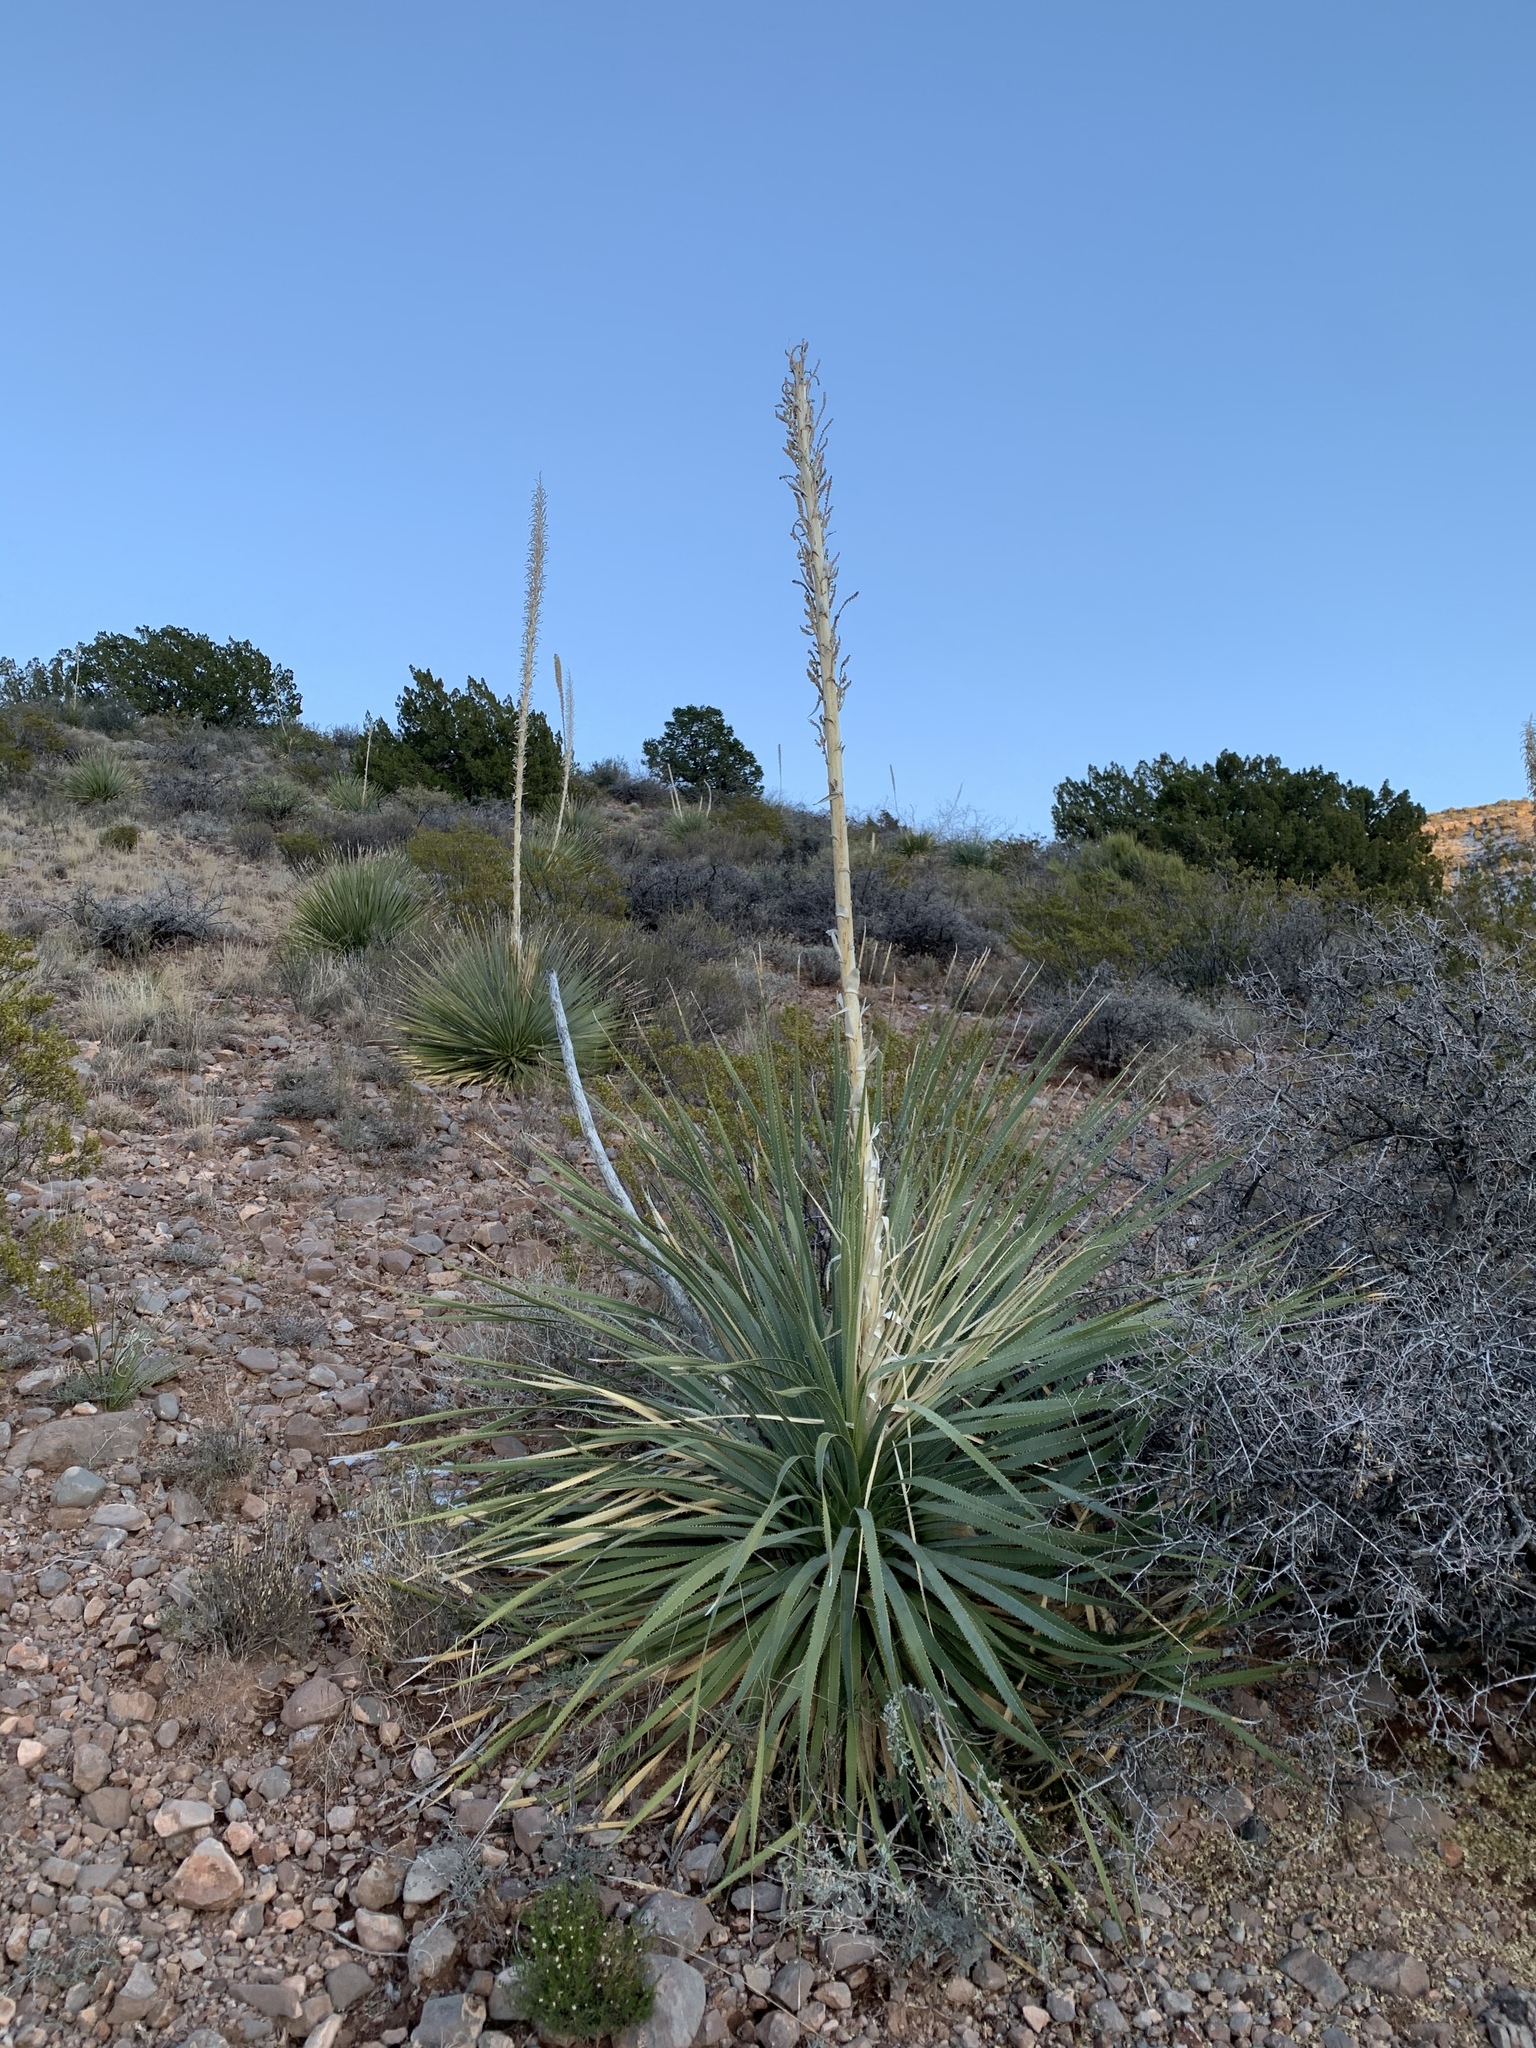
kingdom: Plantae
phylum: Tracheophyta
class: Liliopsida
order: Asparagales
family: Asparagaceae
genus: Dasylirion
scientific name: Dasylirion wheeleri
